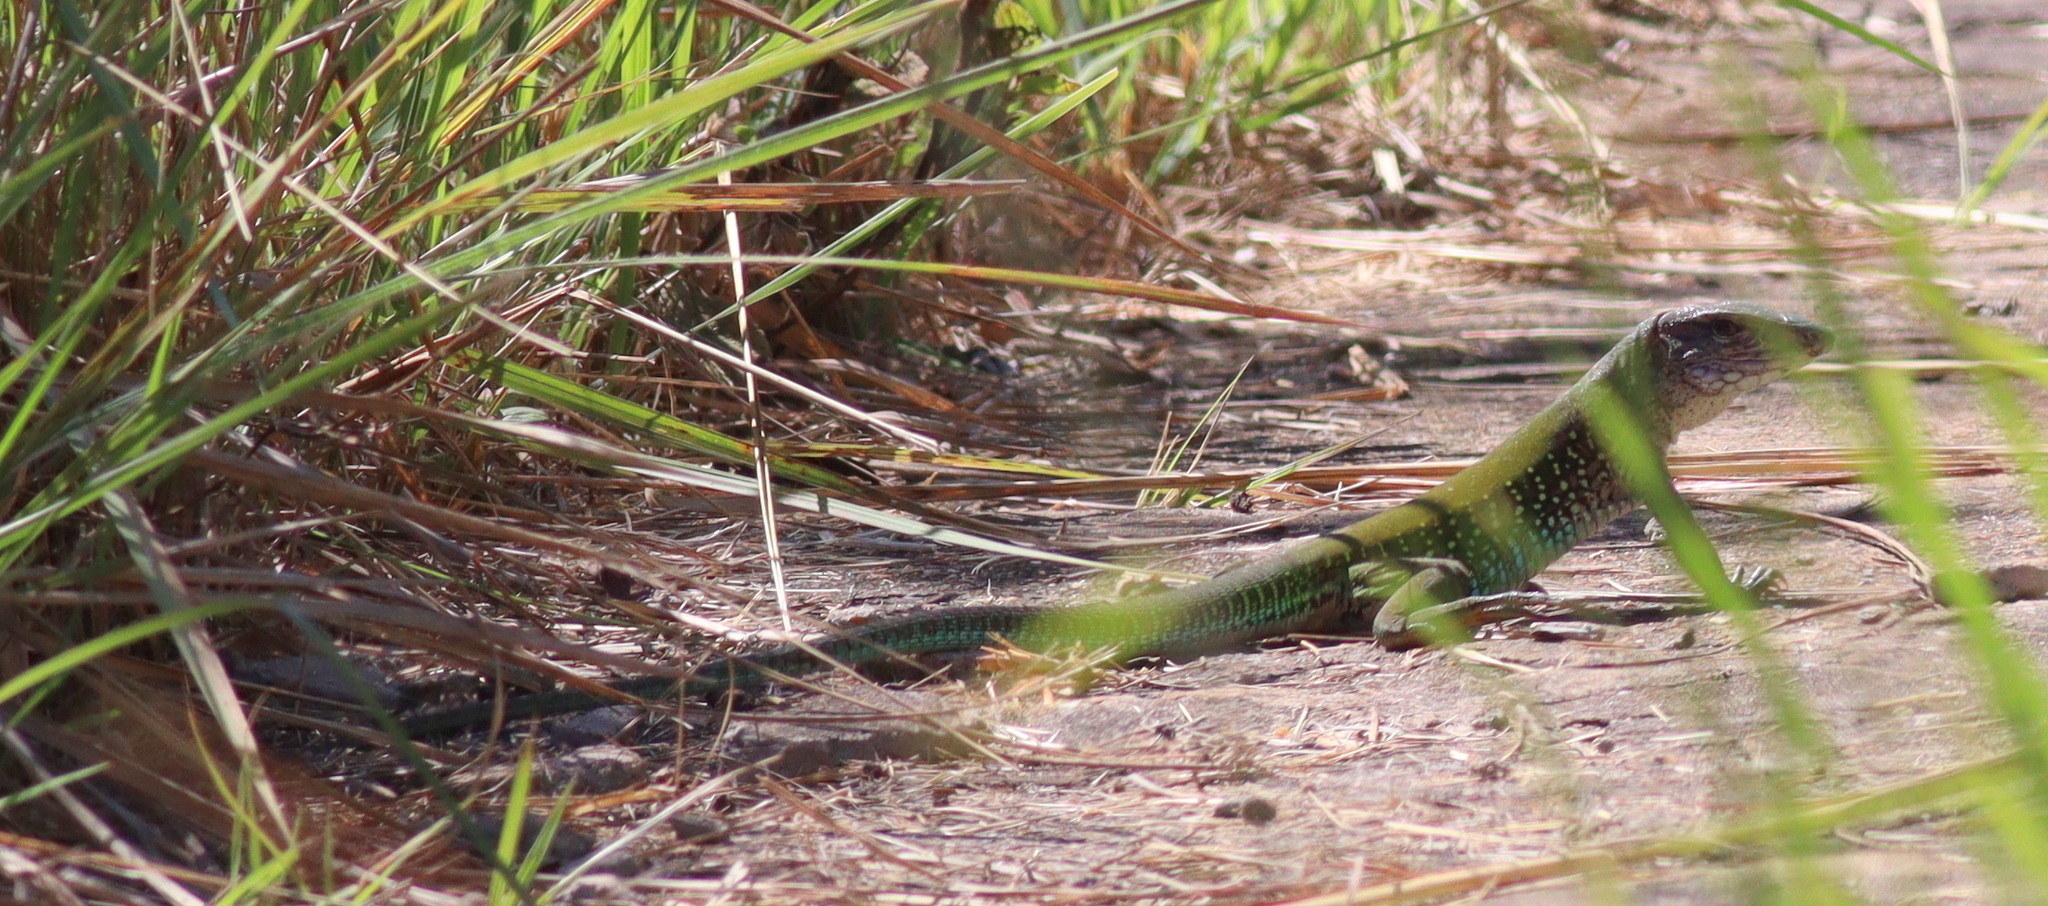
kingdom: Animalia
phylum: Chordata
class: Squamata
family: Teiidae
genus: Ameiva
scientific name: Ameiva ameiva
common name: Giant ameiva
